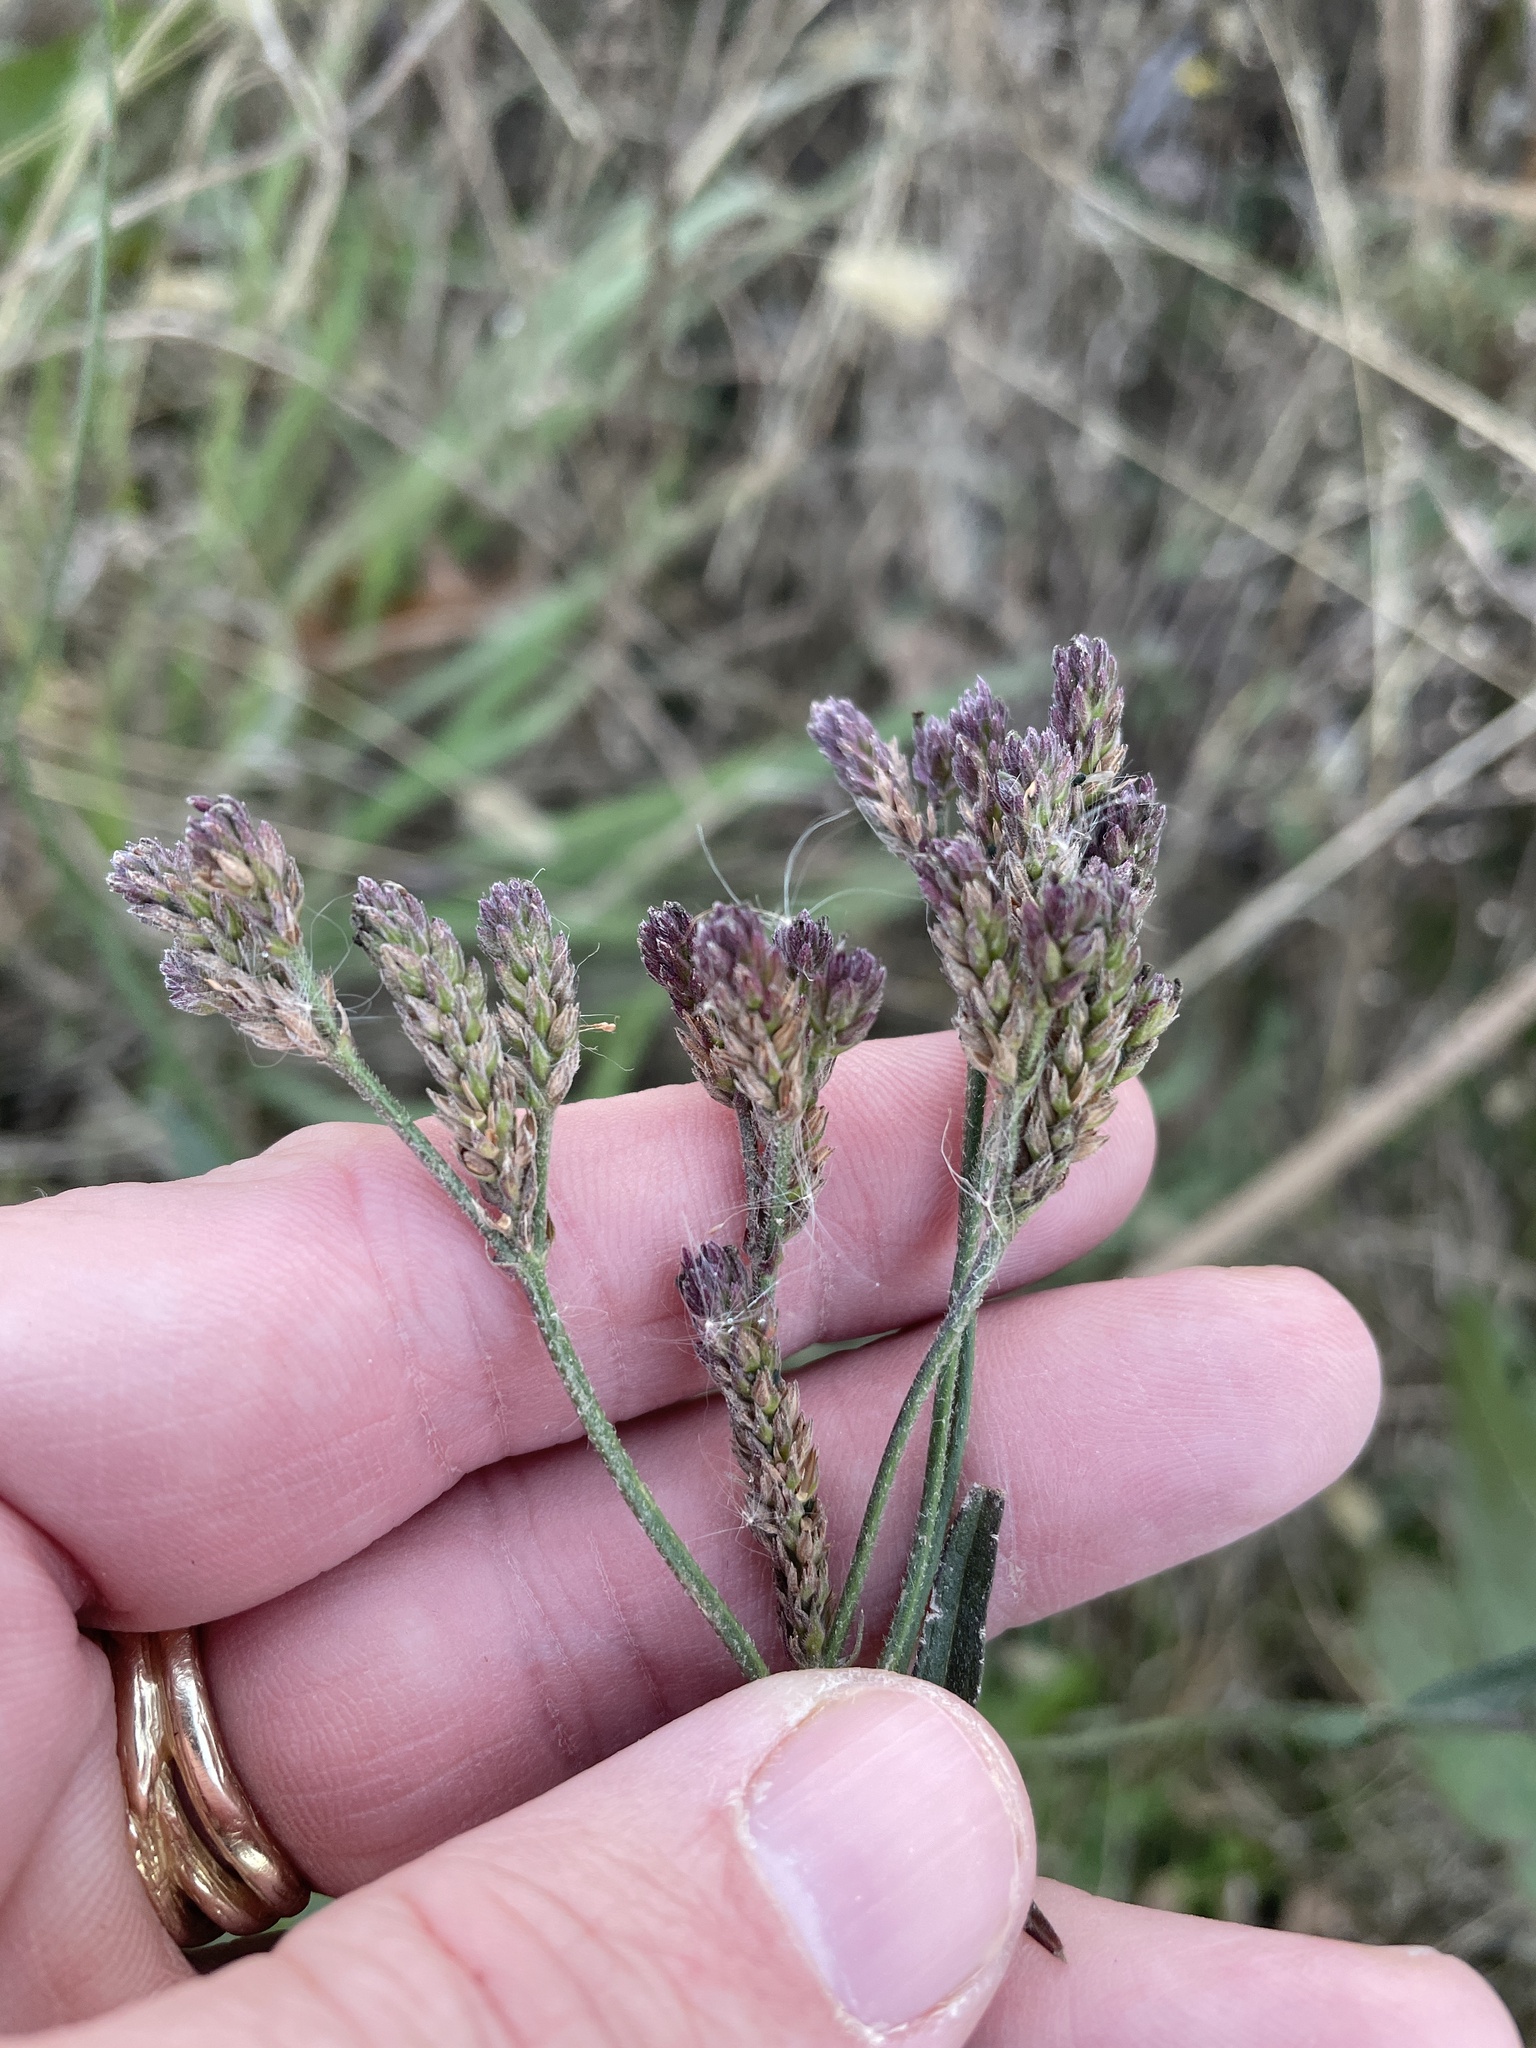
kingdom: Plantae
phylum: Tracheophyta
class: Magnoliopsida
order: Lamiales
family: Verbenaceae
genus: Verbena
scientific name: Verbena brasiliensis
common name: Brazilian vervain
